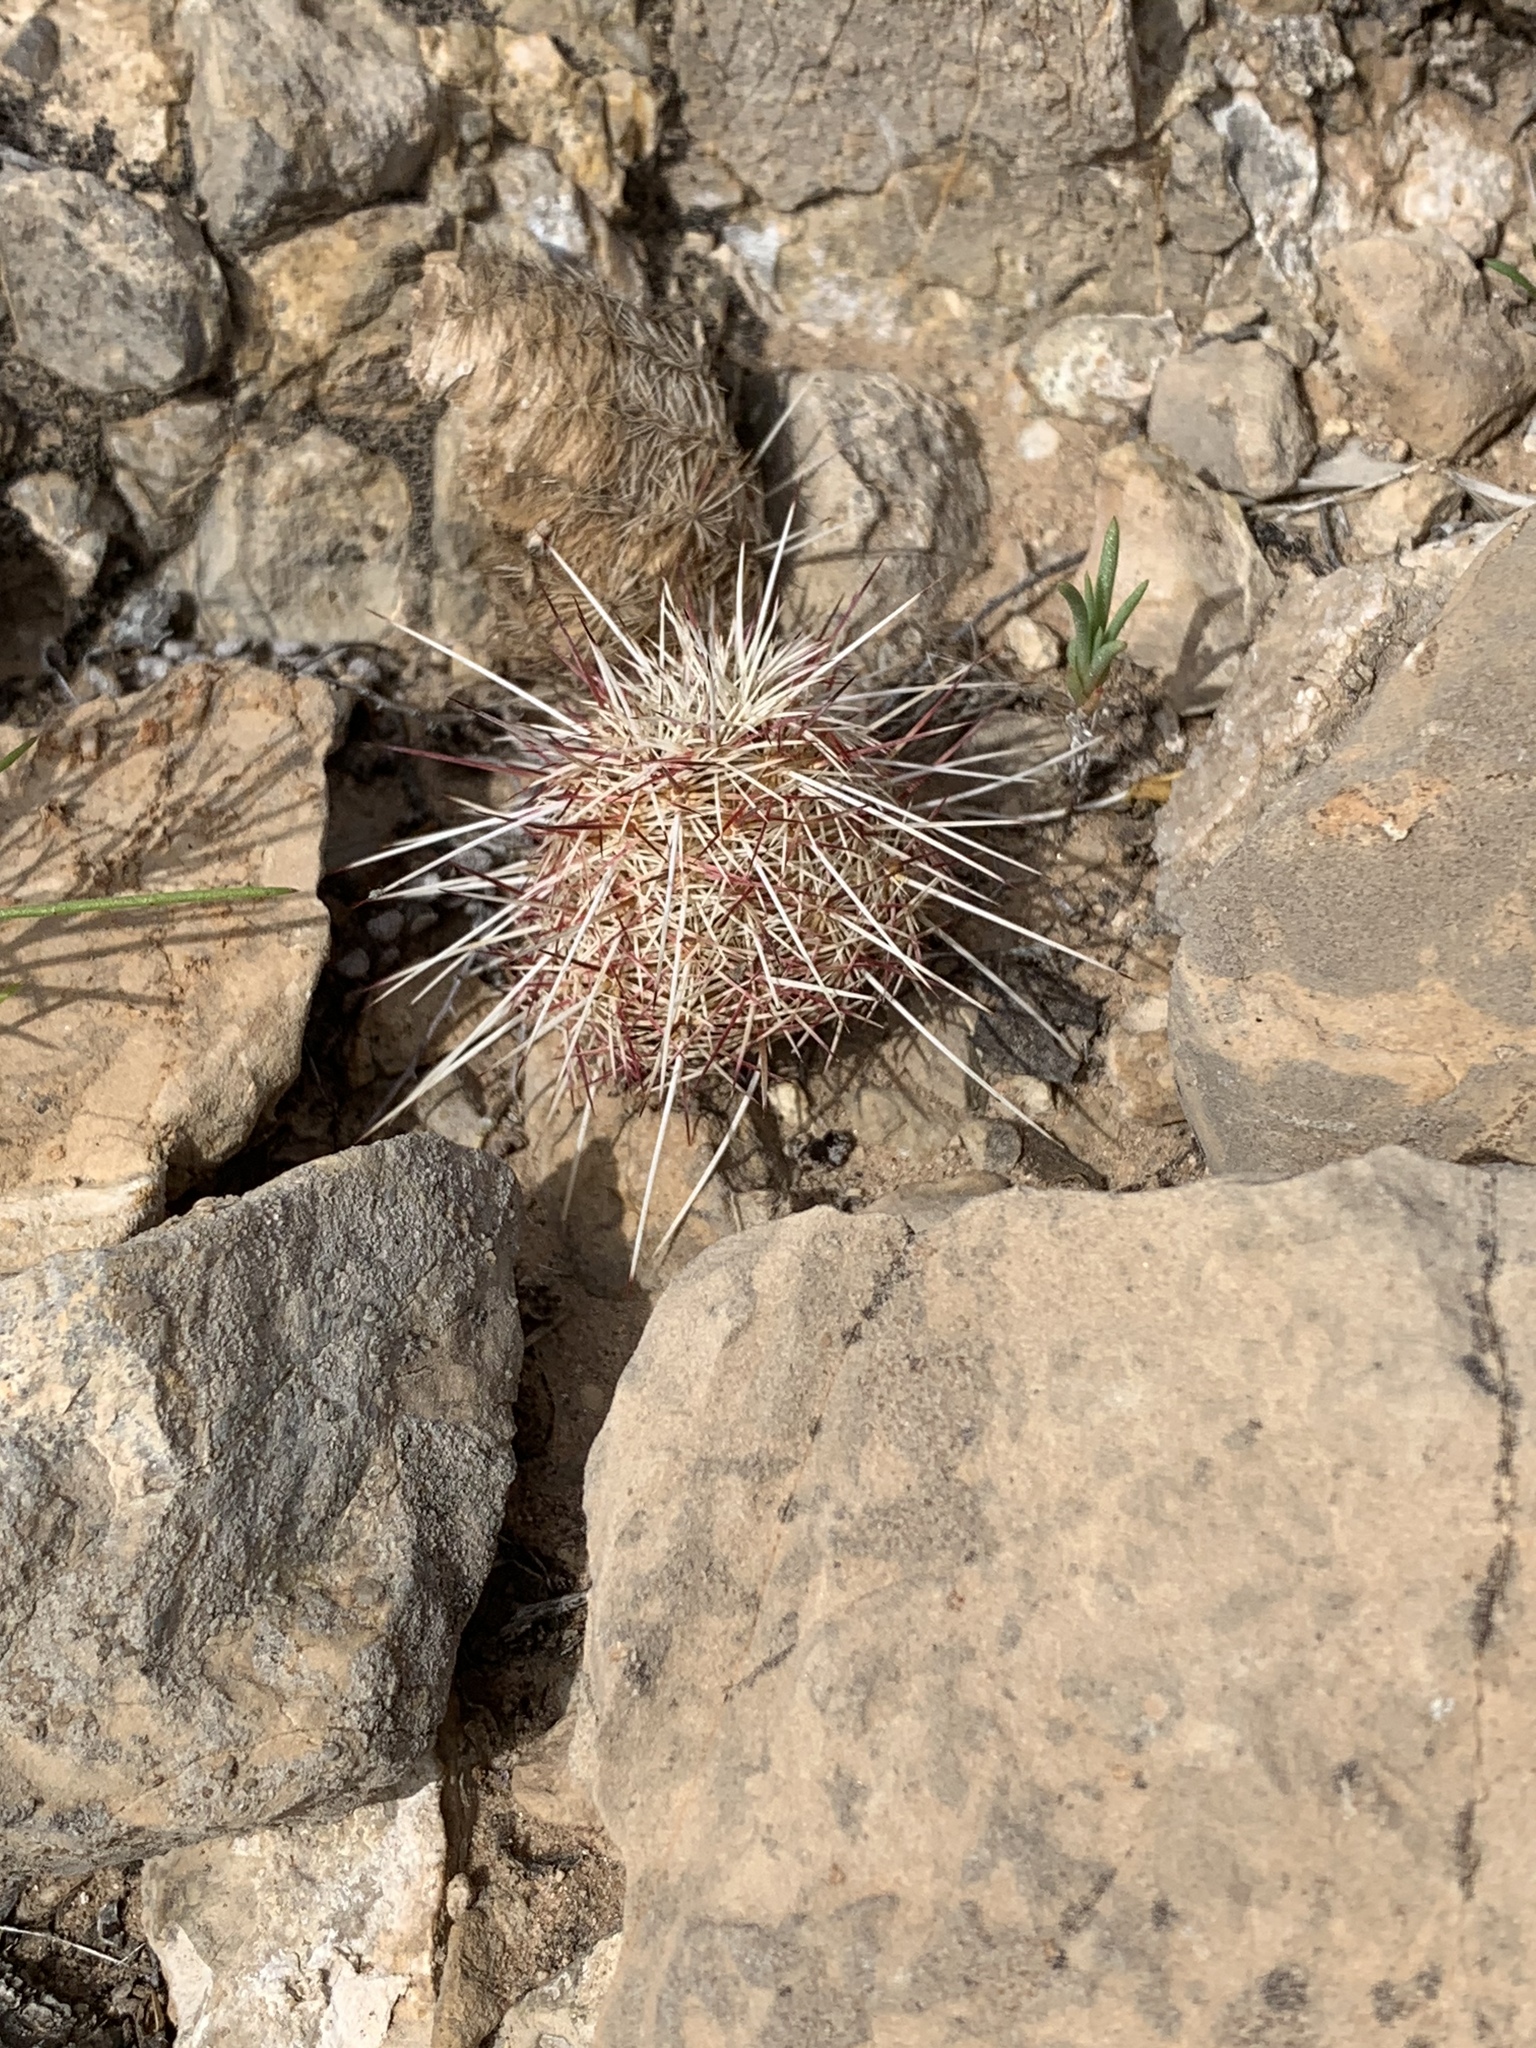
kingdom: Plantae
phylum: Tracheophyta
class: Magnoliopsida
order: Caryophyllales
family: Cactaceae
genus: Echinocereus
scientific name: Echinocereus viridiflorus
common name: Nylon hedgehog cactus
